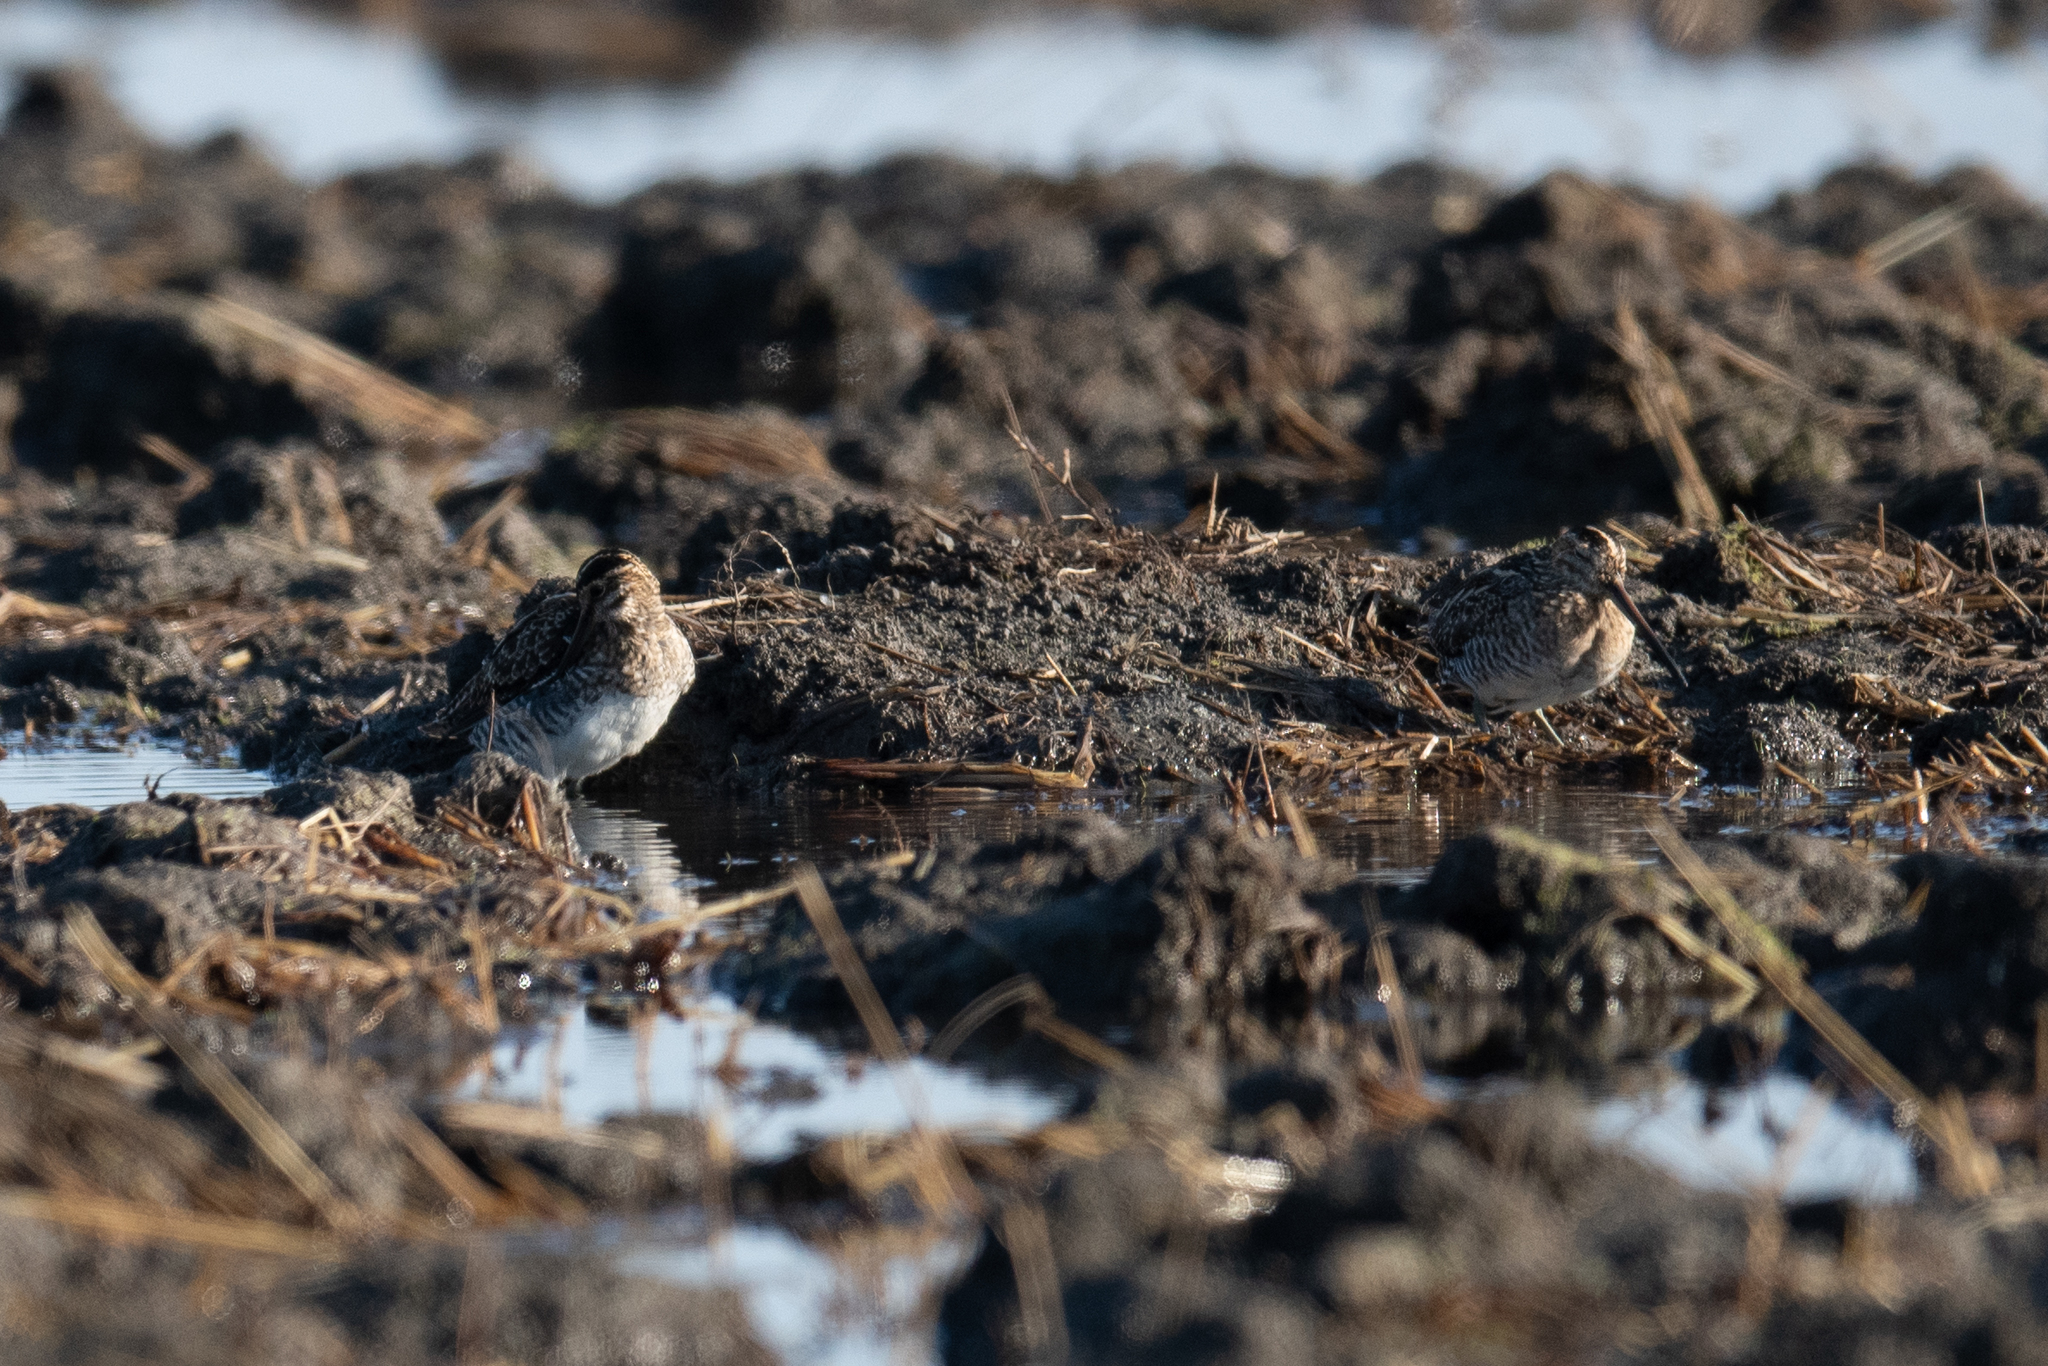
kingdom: Animalia
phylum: Chordata
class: Aves
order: Charadriiformes
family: Scolopacidae
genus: Gallinago
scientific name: Gallinago delicata
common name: Wilson's snipe
